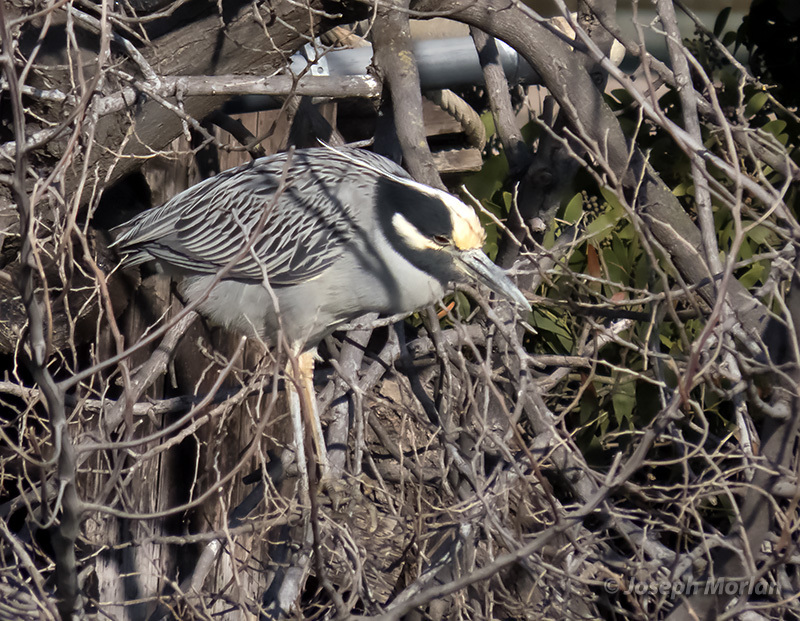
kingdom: Animalia
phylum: Chordata
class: Aves
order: Pelecaniformes
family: Ardeidae
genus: Nyctanassa
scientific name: Nyctanassa violacea
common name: Yellow-crowned night heron
